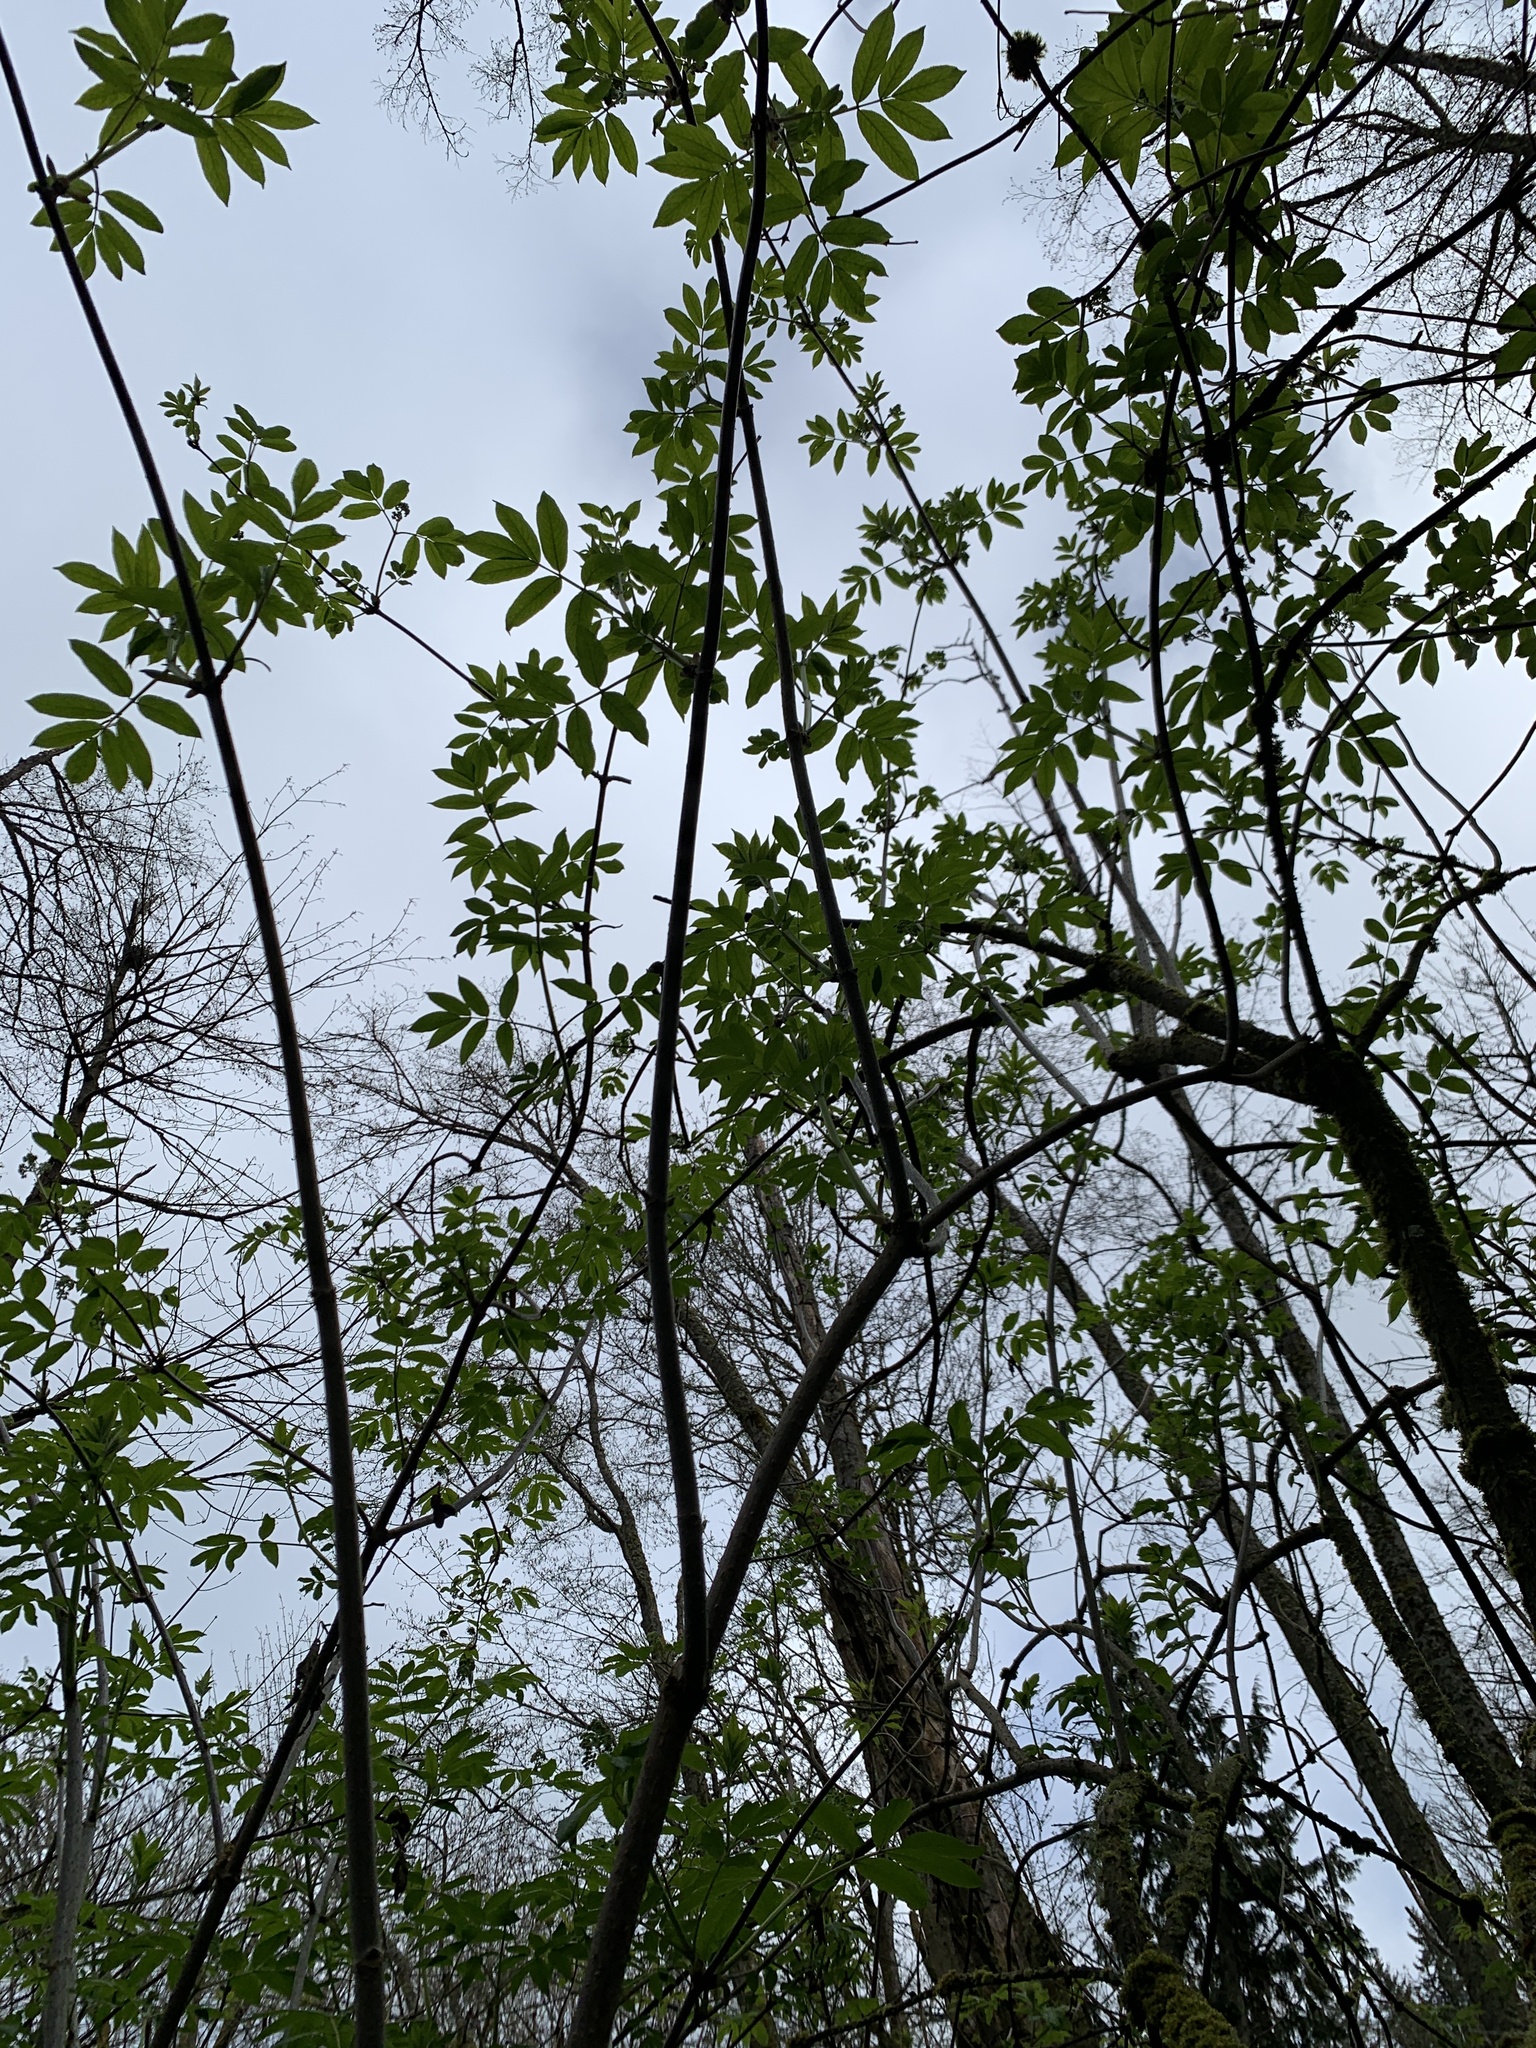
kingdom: Plantae
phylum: Tracheophyta
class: Magnoliopsida
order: Dipsacales
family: Viburnaceae
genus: Sambucus
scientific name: Sambucus racemosa
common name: Red-berried elder
